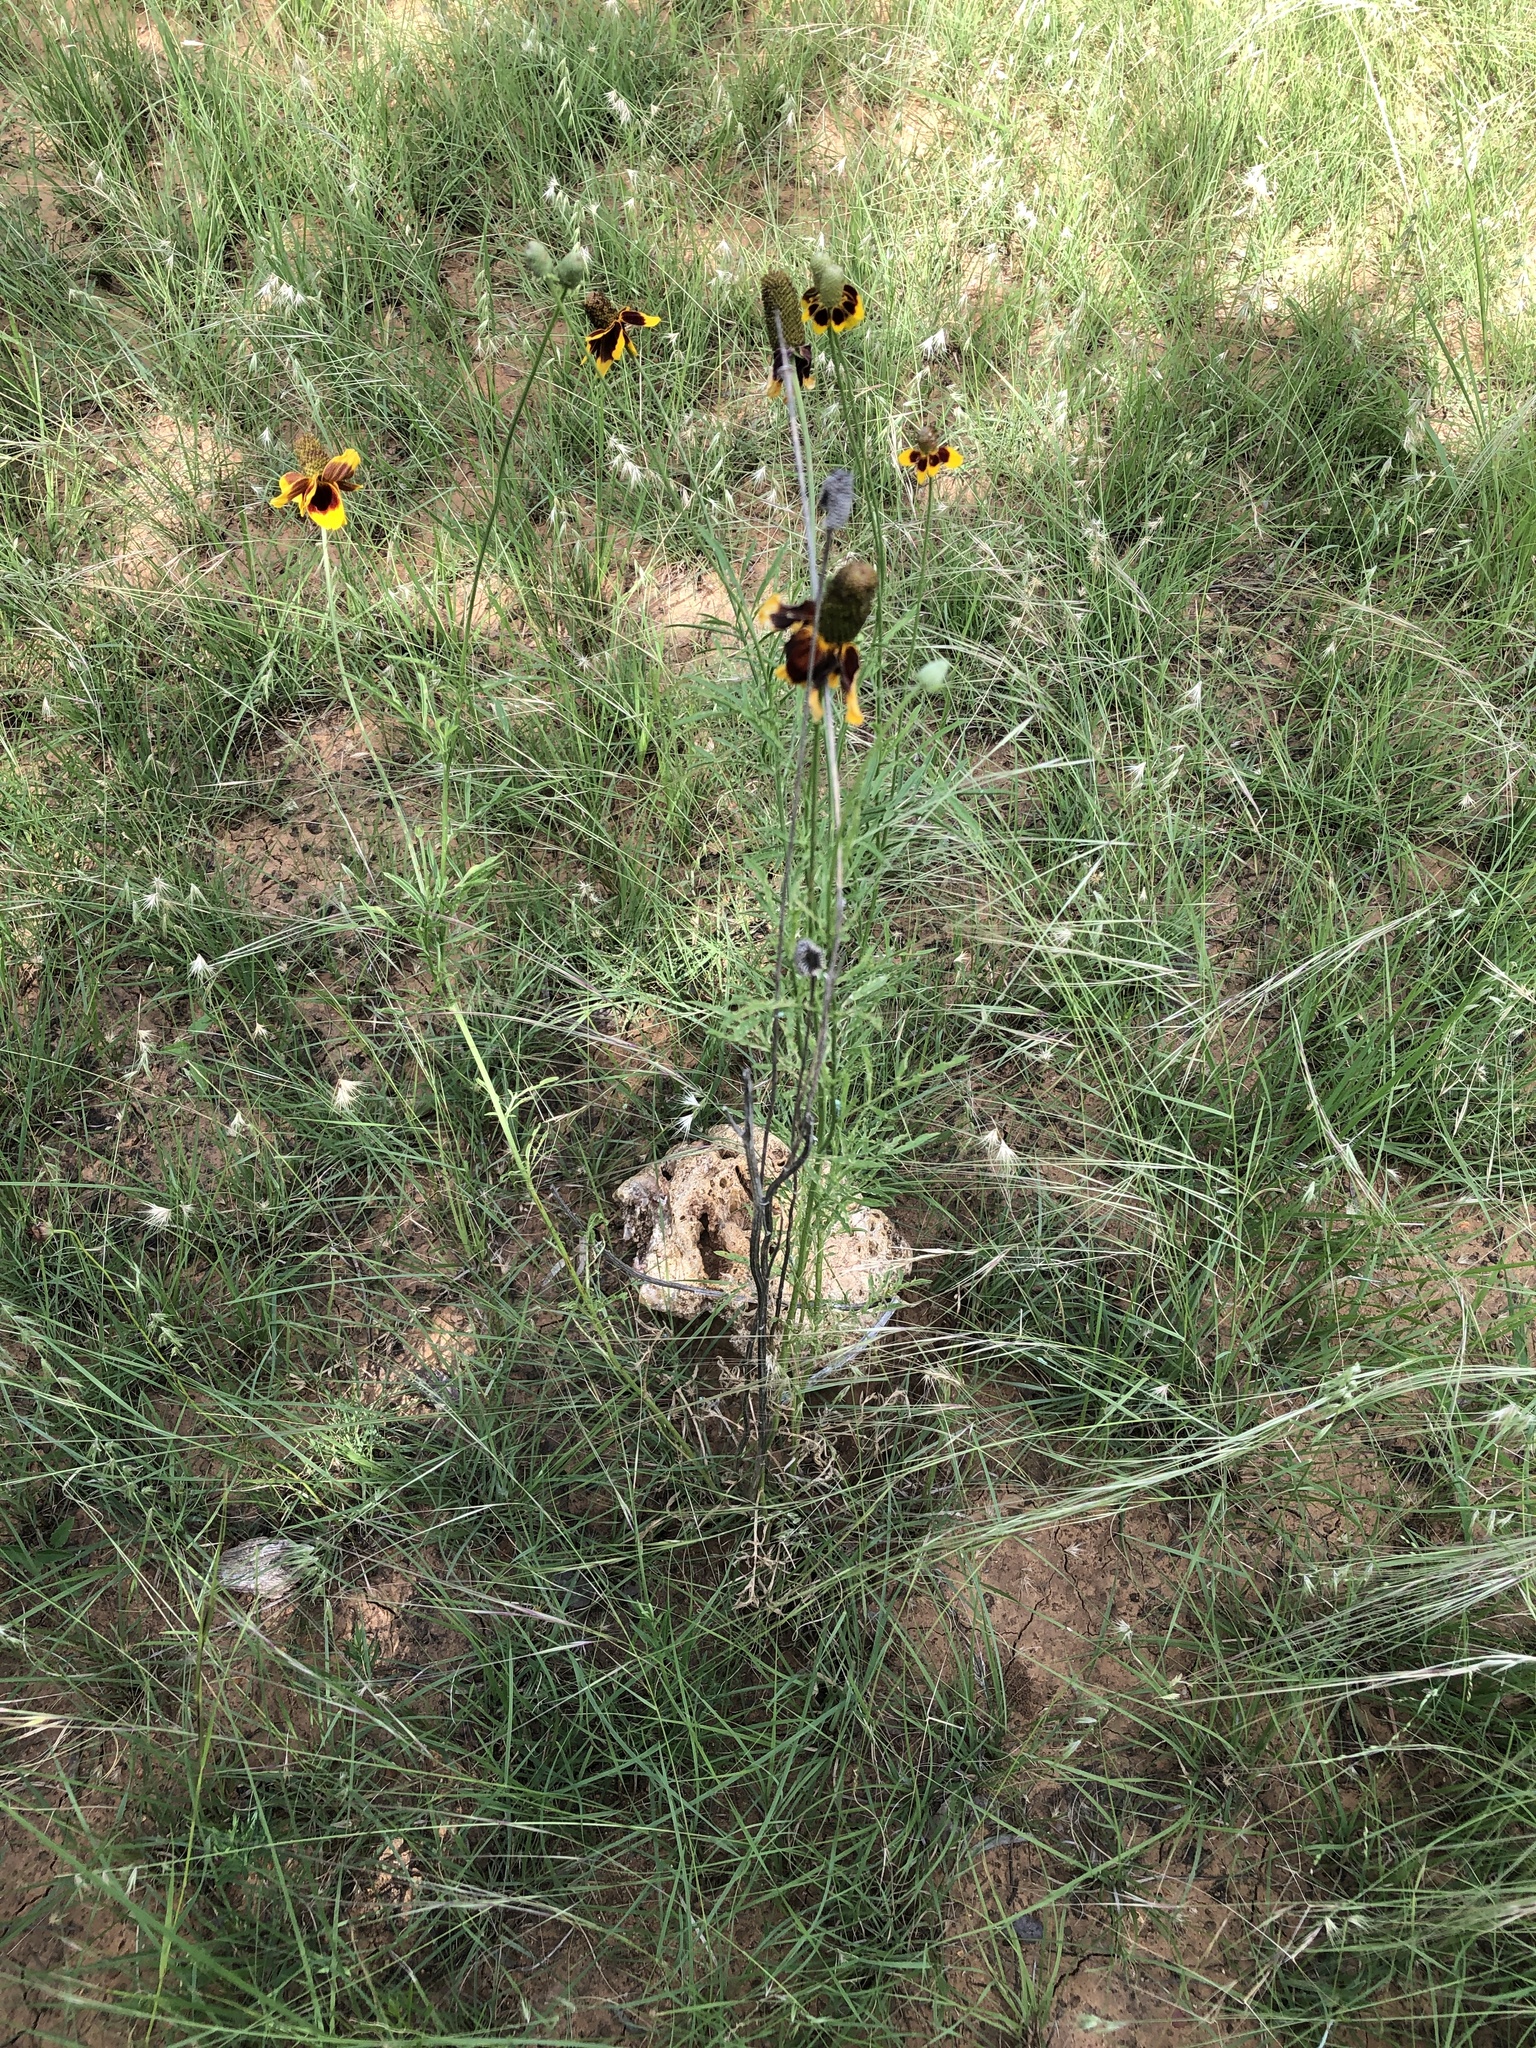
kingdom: Plantae
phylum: Tracheophyta
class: Magnoliopsida
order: Asterales
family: Asteraceae
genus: Ratibida
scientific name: Ratibida columnifera
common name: Prairie coneflower
